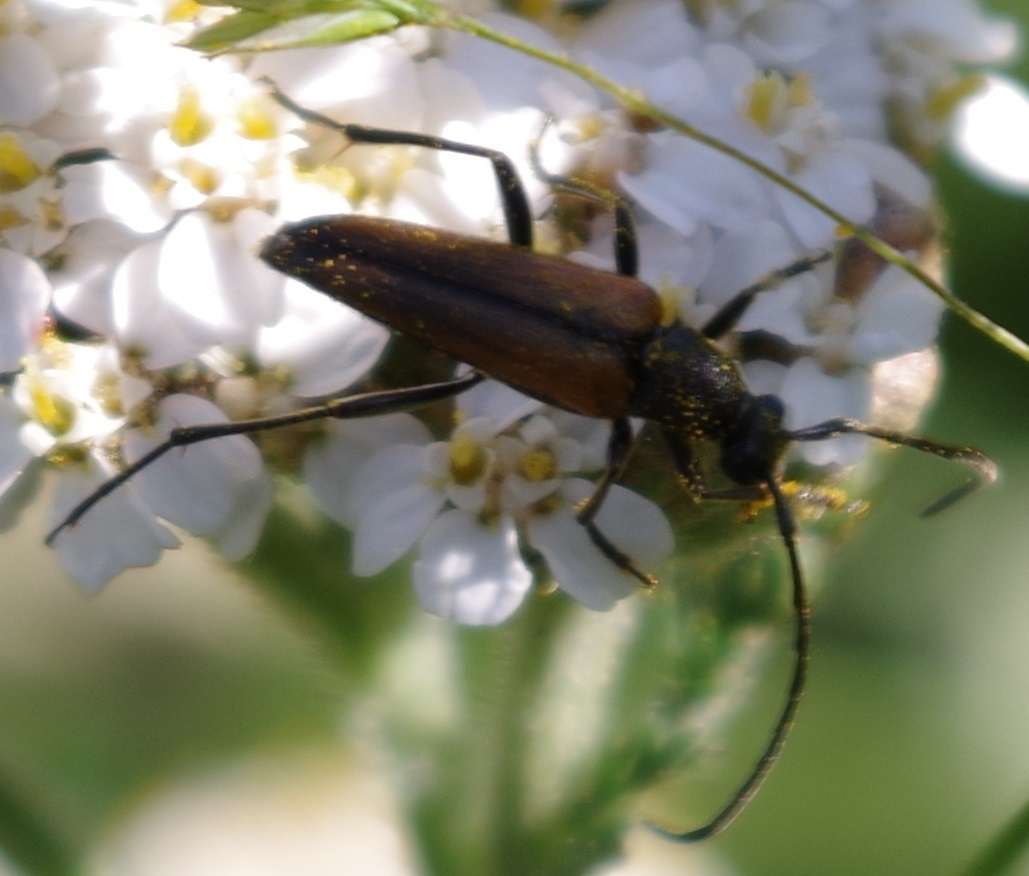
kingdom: Animalia
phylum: Arthropoda
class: Insecta
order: Coleoptera
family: Cerambycidae
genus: Stenurella
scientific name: Stenurella melanura
